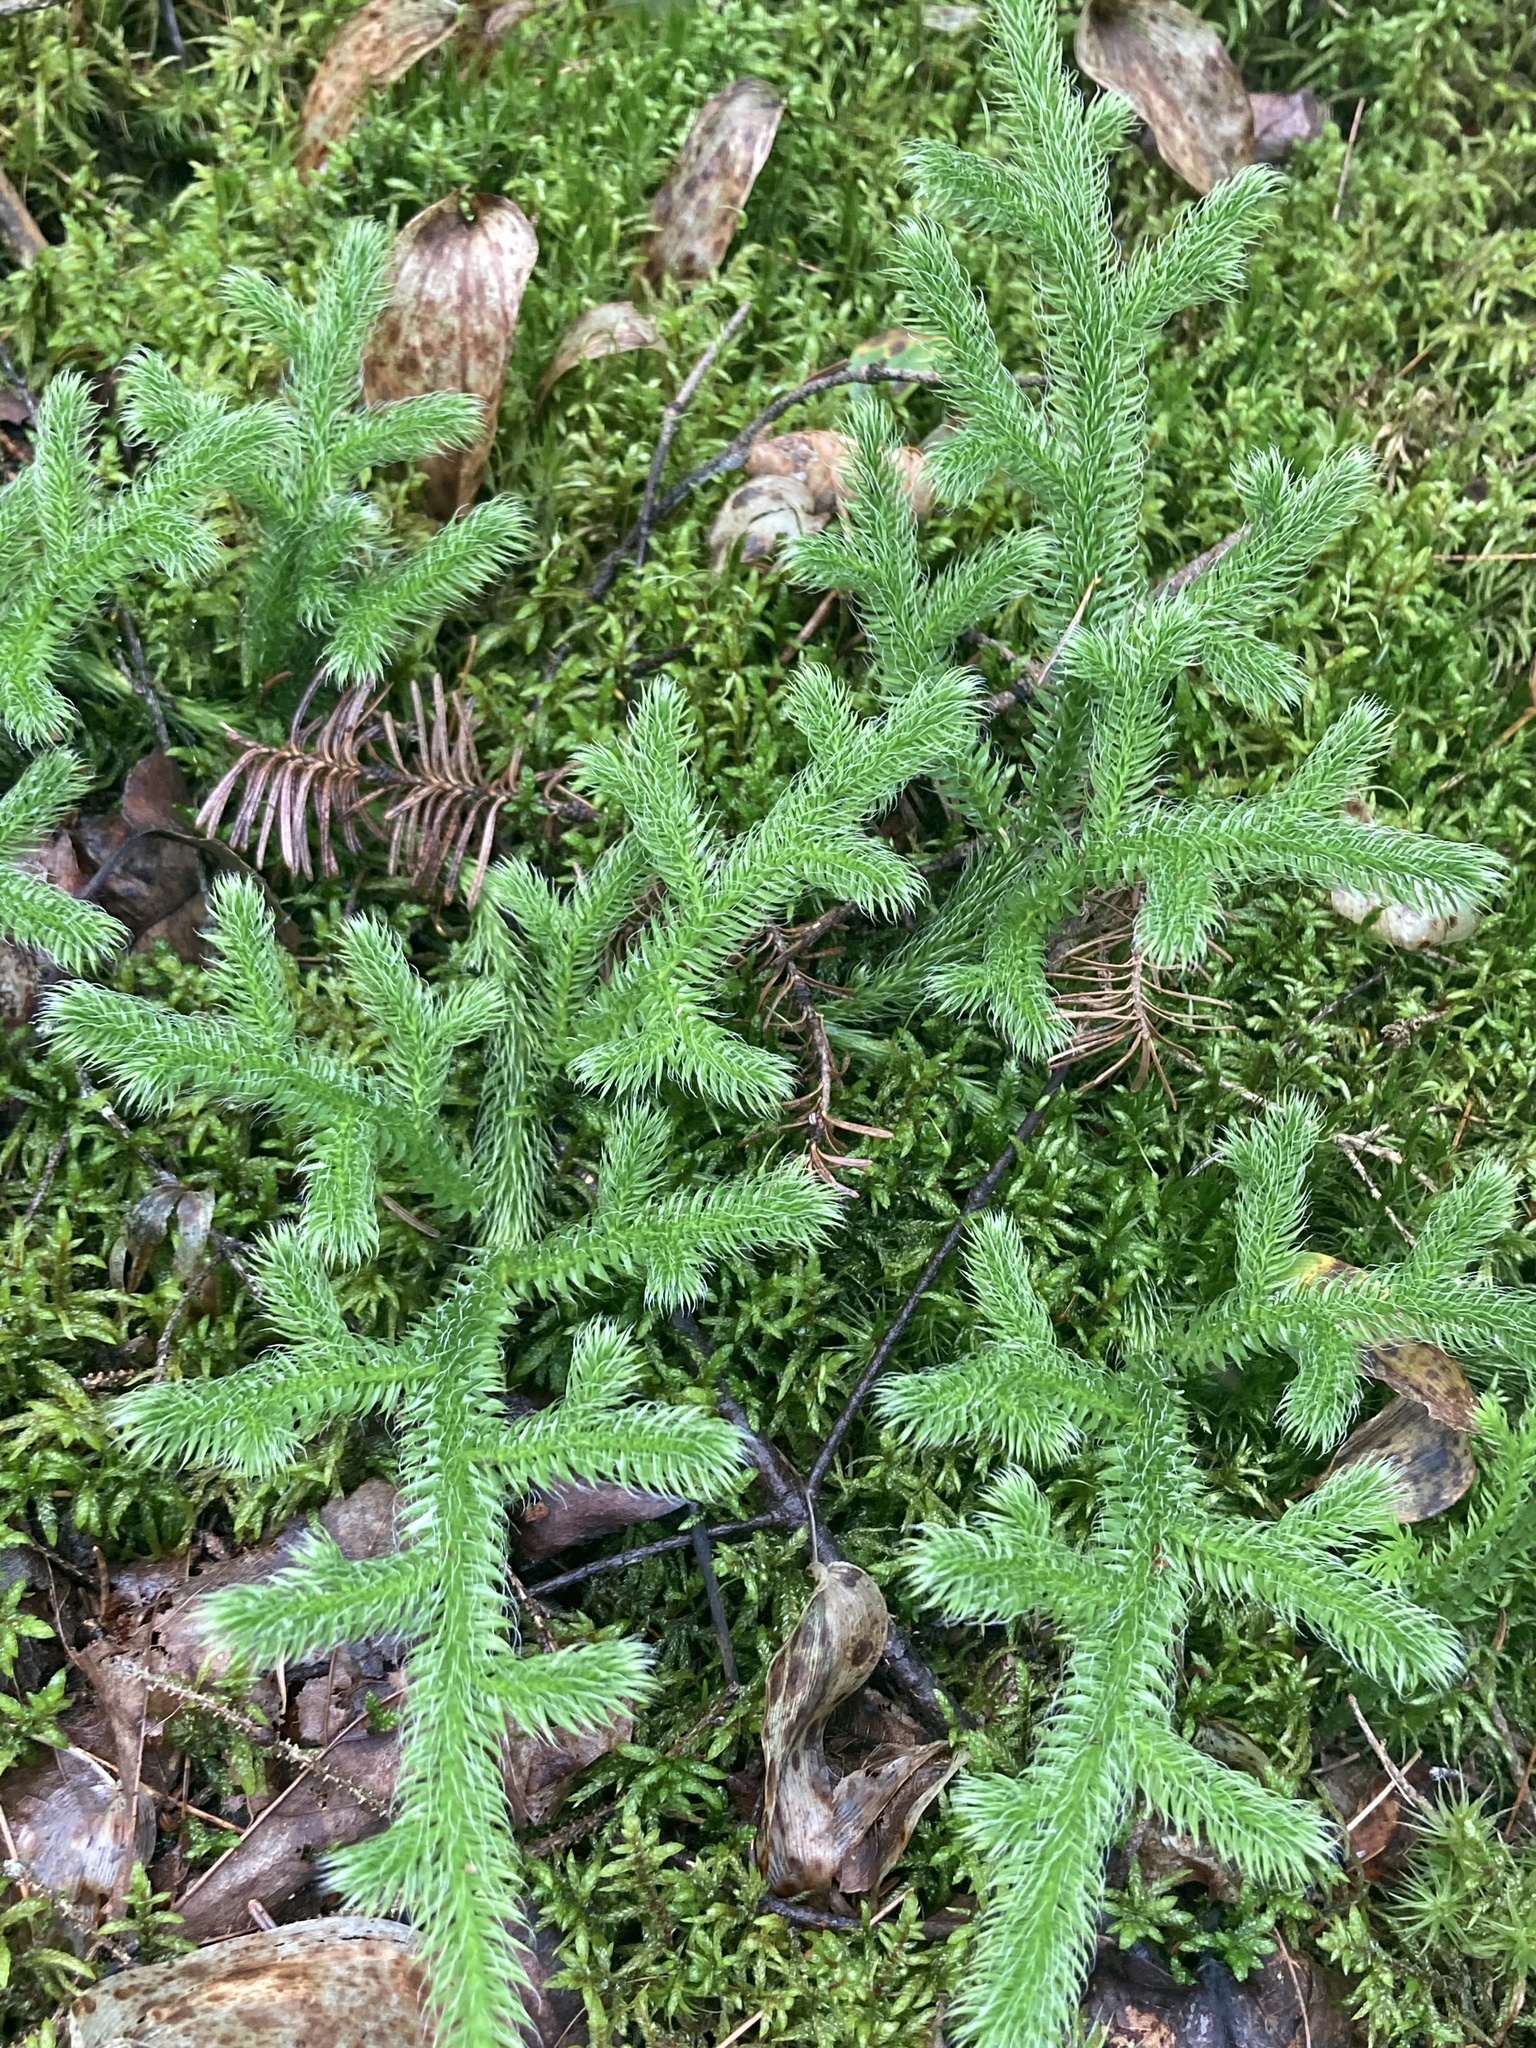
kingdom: Plantae
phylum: Tracheophyta
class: Lycopodiopsida
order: Lycopodiales
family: Lycopodiaceae
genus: Lycopodium
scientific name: Lycopodium clavatum
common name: Stag's-horn clubmoss
